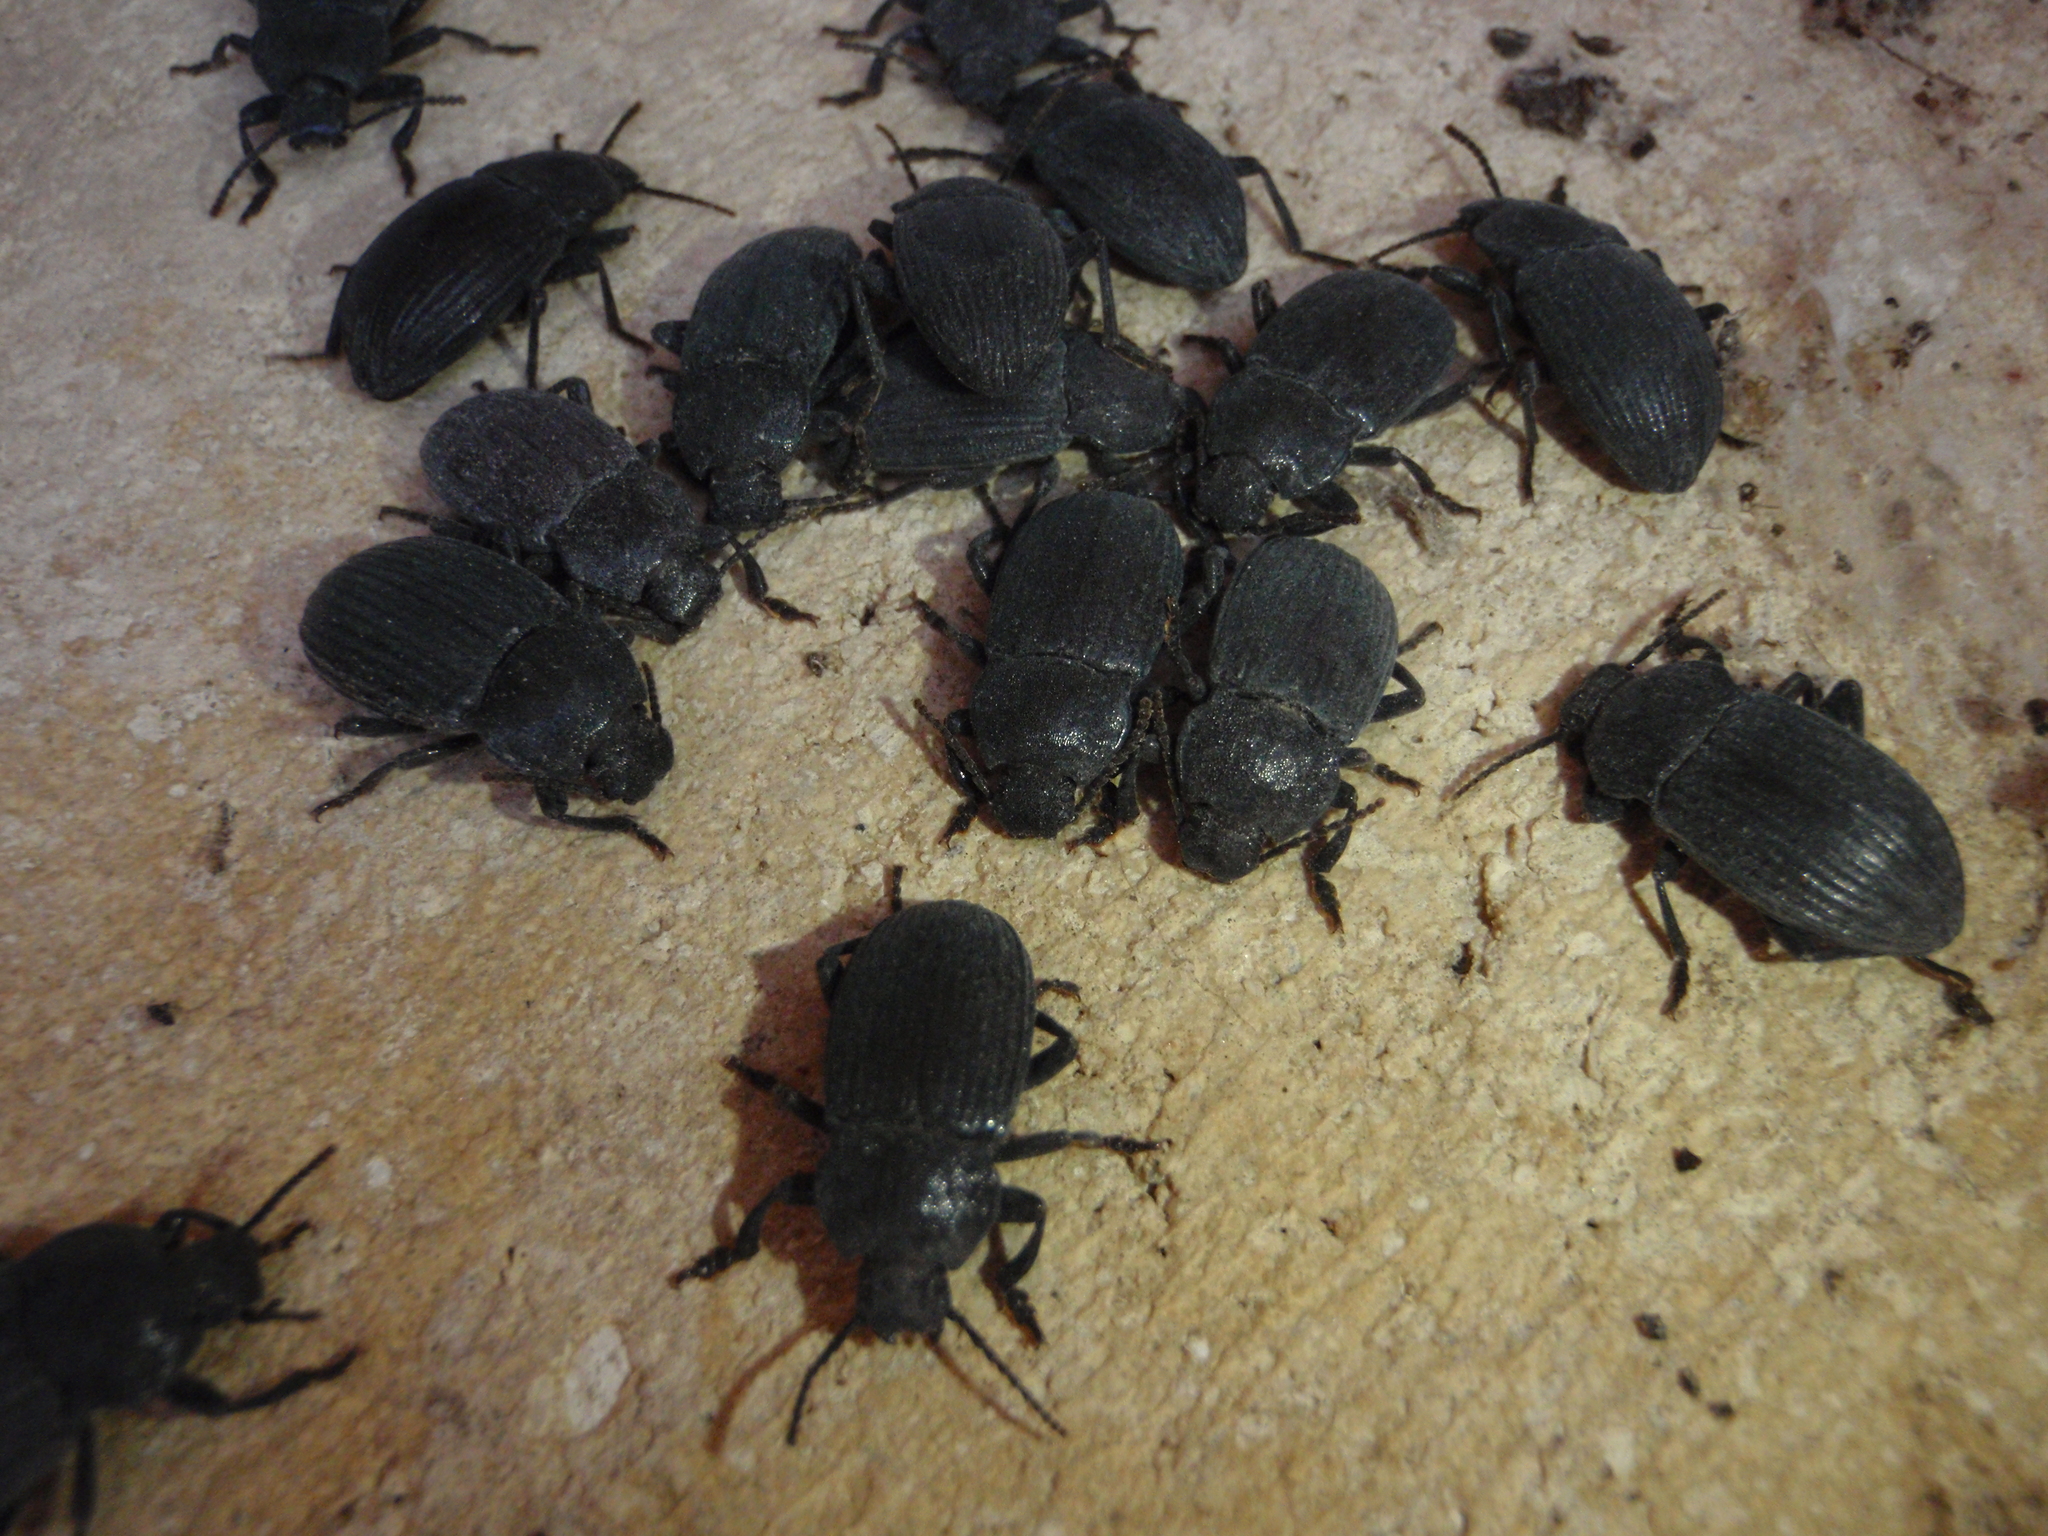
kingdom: Animalia
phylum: Arthropoda
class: Insecta
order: Coleoptera
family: Tenebrionidae
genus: Dendarus
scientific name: Dendarus coarcticollis
